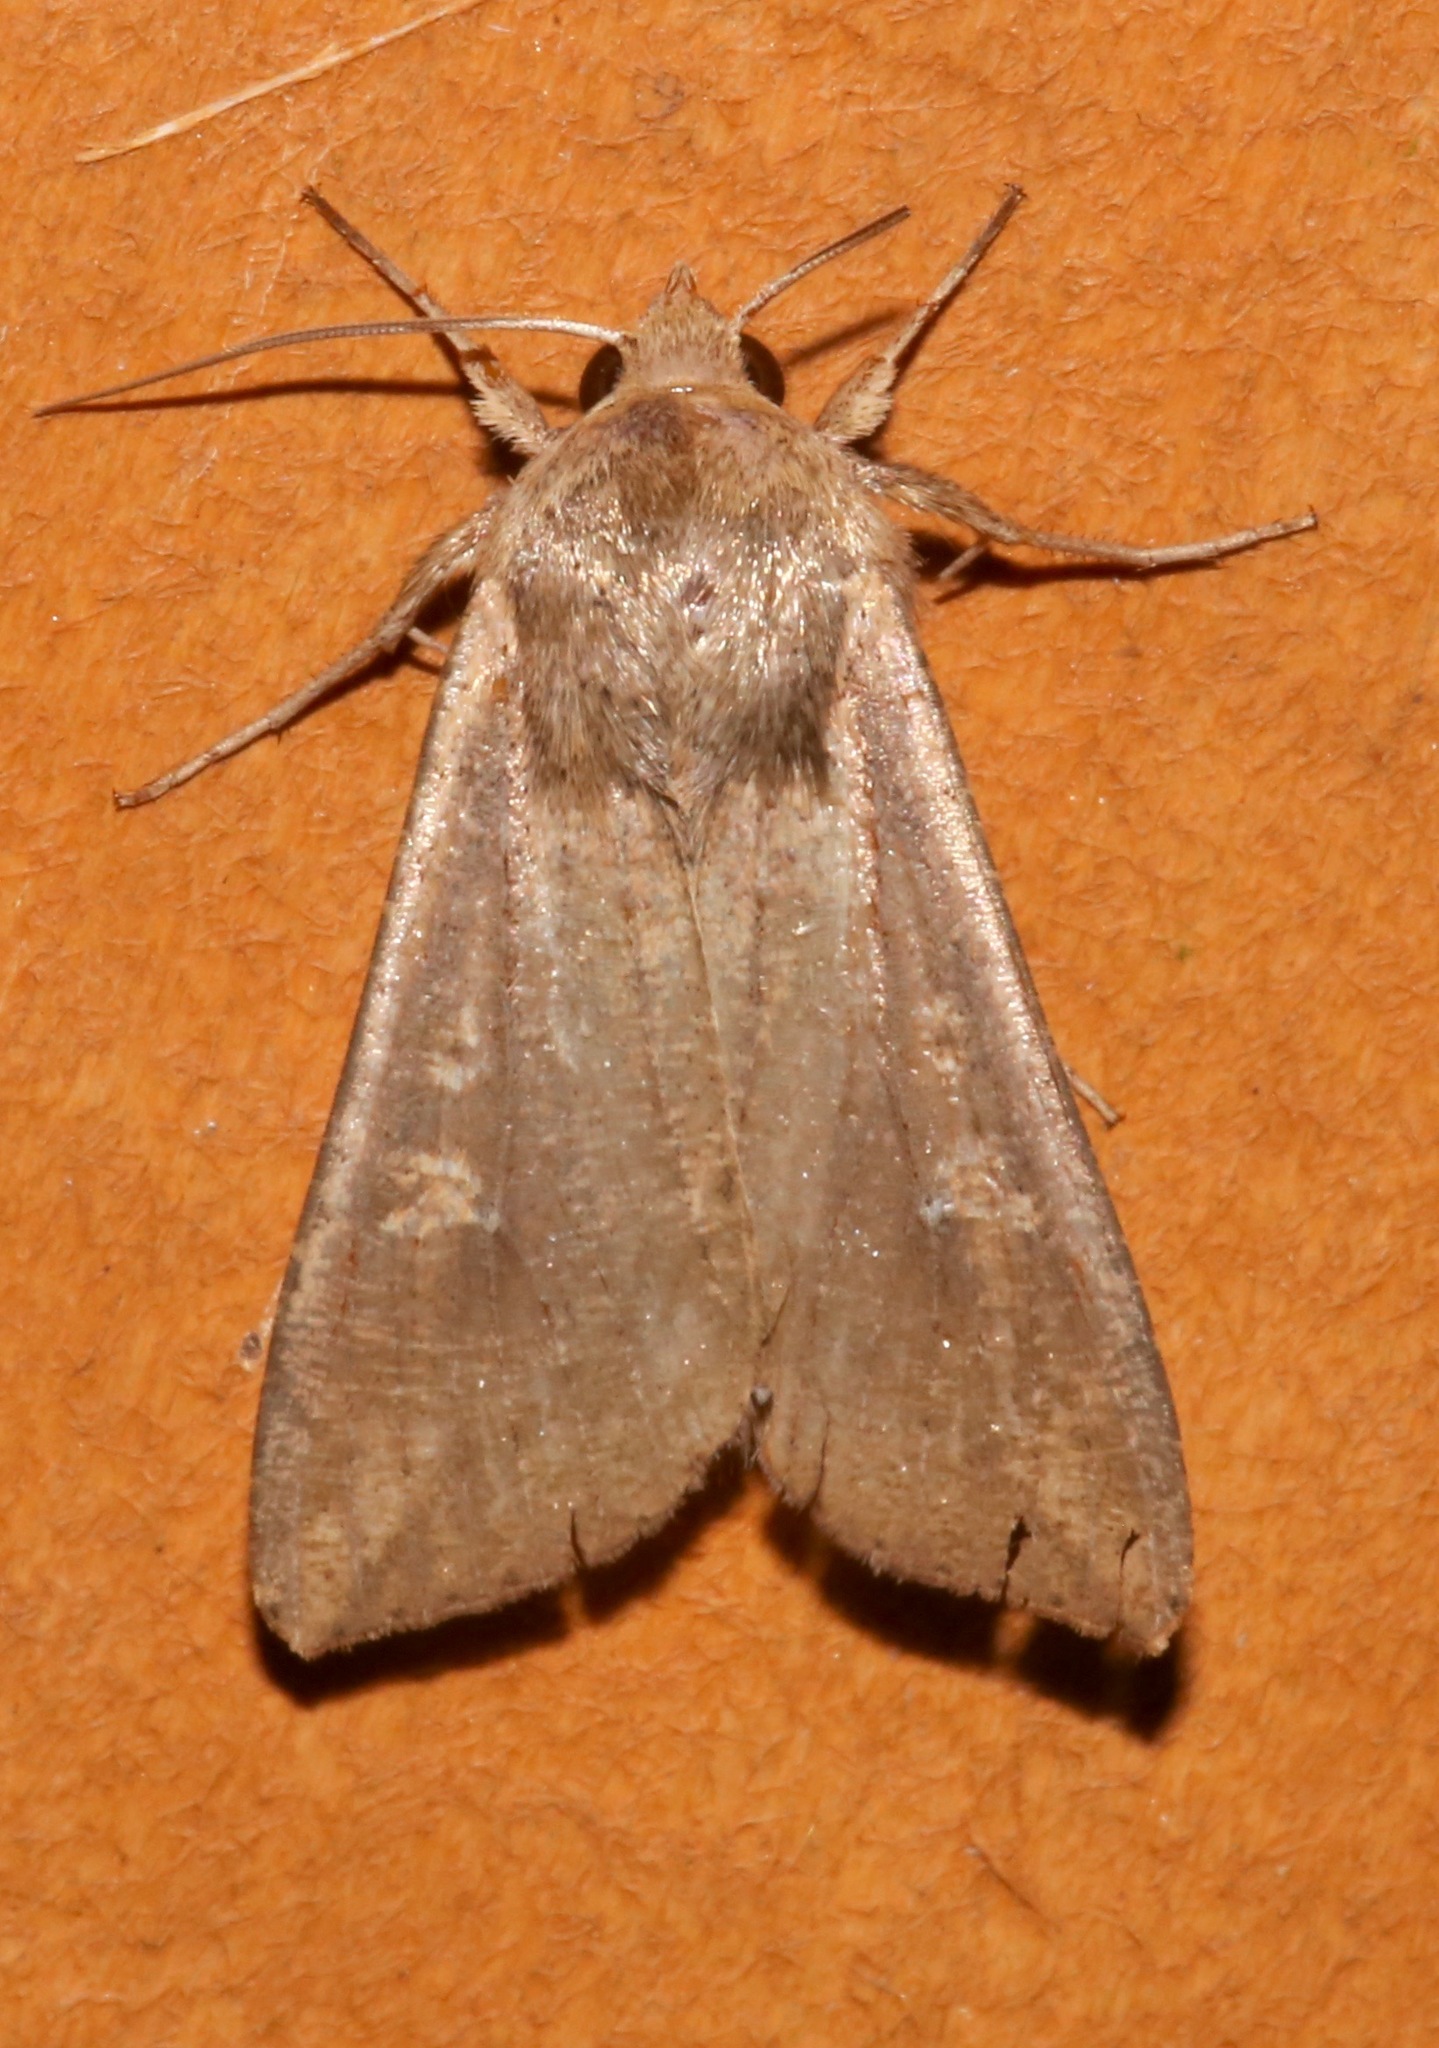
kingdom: Animalia
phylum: Arthropoda
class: Insecta
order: Lepidoptera
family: Noctuidae
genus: Mythimna
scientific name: Mythimna unipuncta
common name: White-speck
